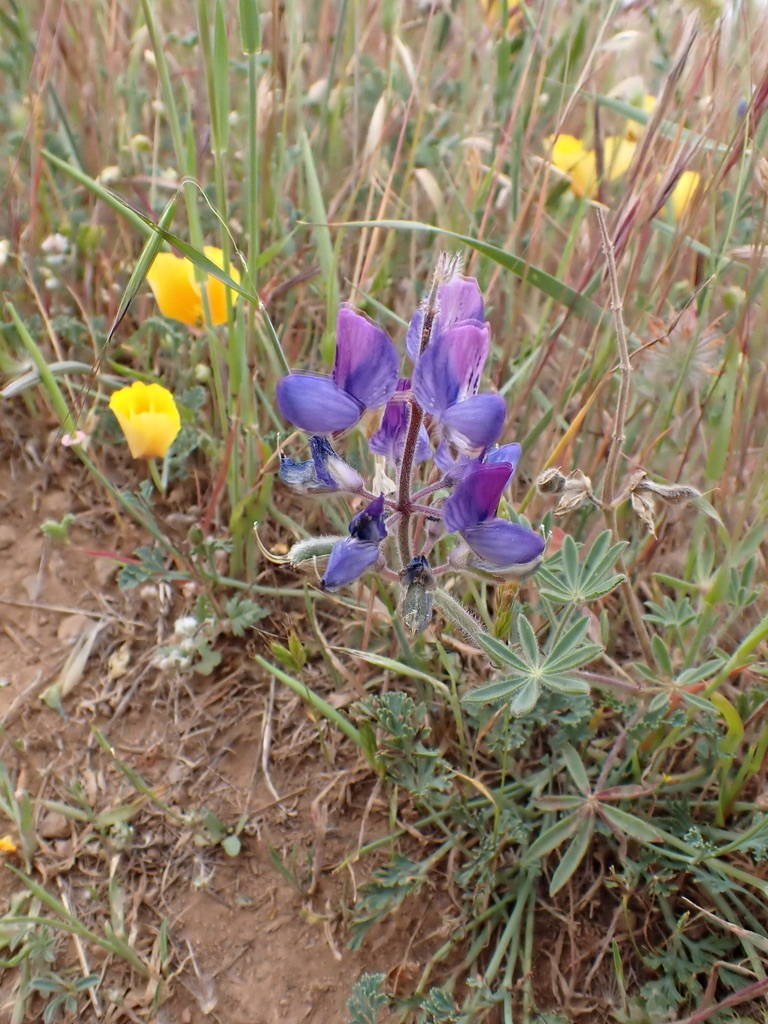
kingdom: Plantae
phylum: Tracheophyta
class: Magnoliopsida
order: Ranunculales
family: Papaveraceae
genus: Eschscholzia
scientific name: Eschscholzia californica
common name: California poppy
